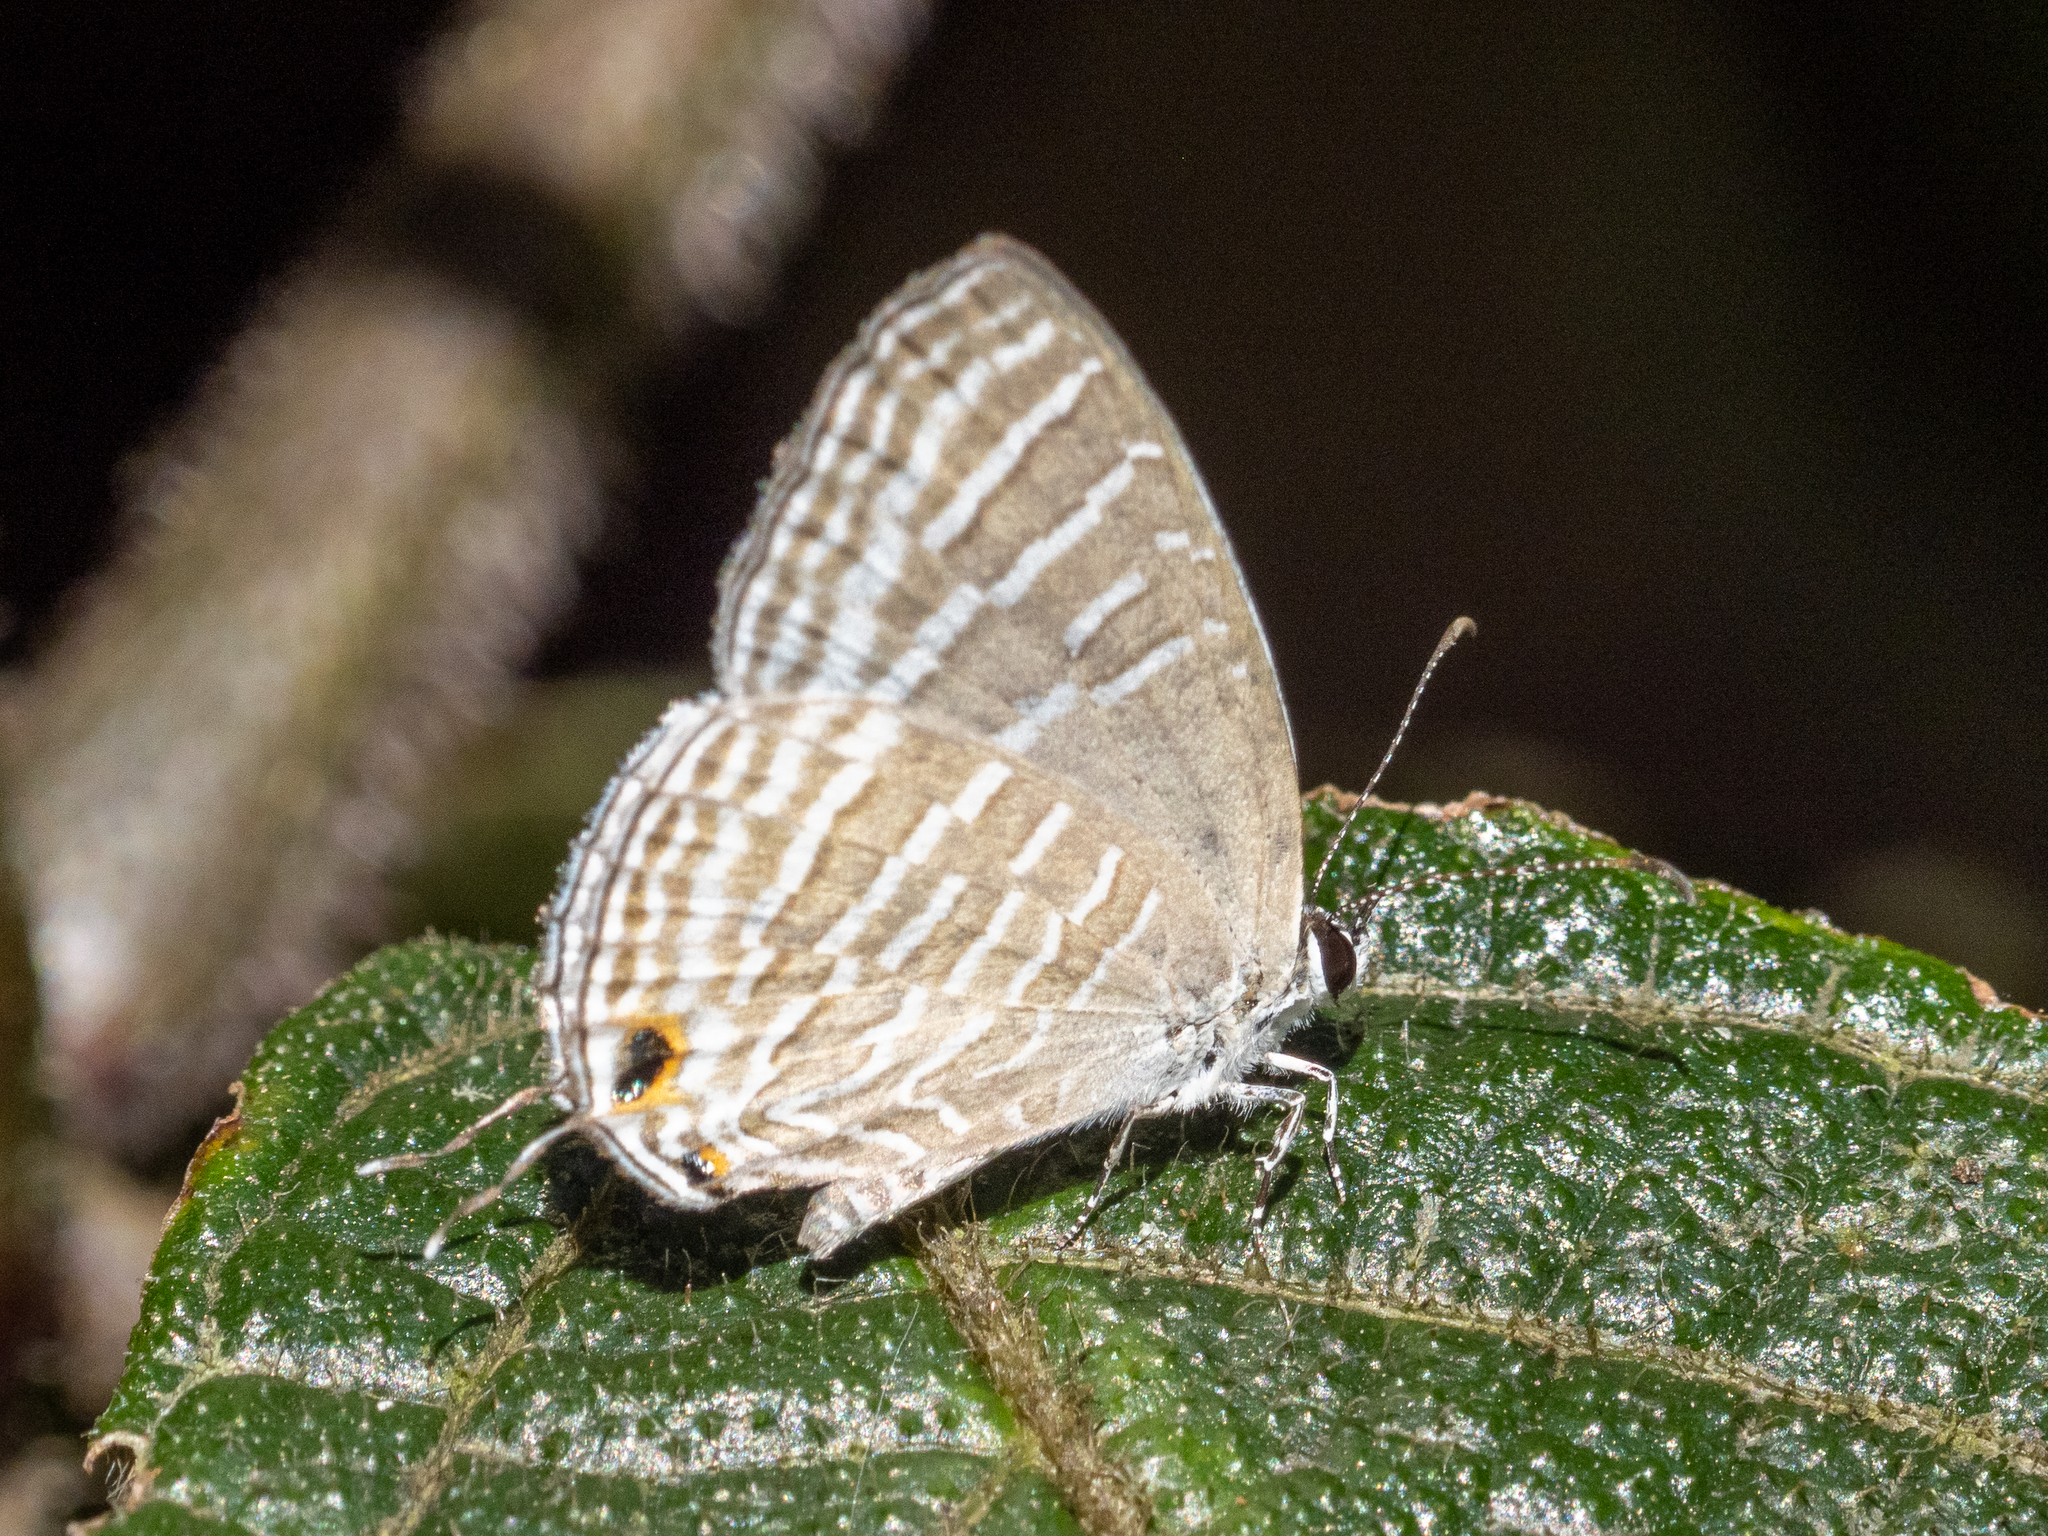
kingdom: Animalia
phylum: Arthropoda
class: Insecta
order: Lepidoptera
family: Lycaenidae
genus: Jamides
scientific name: Jamides celeno
